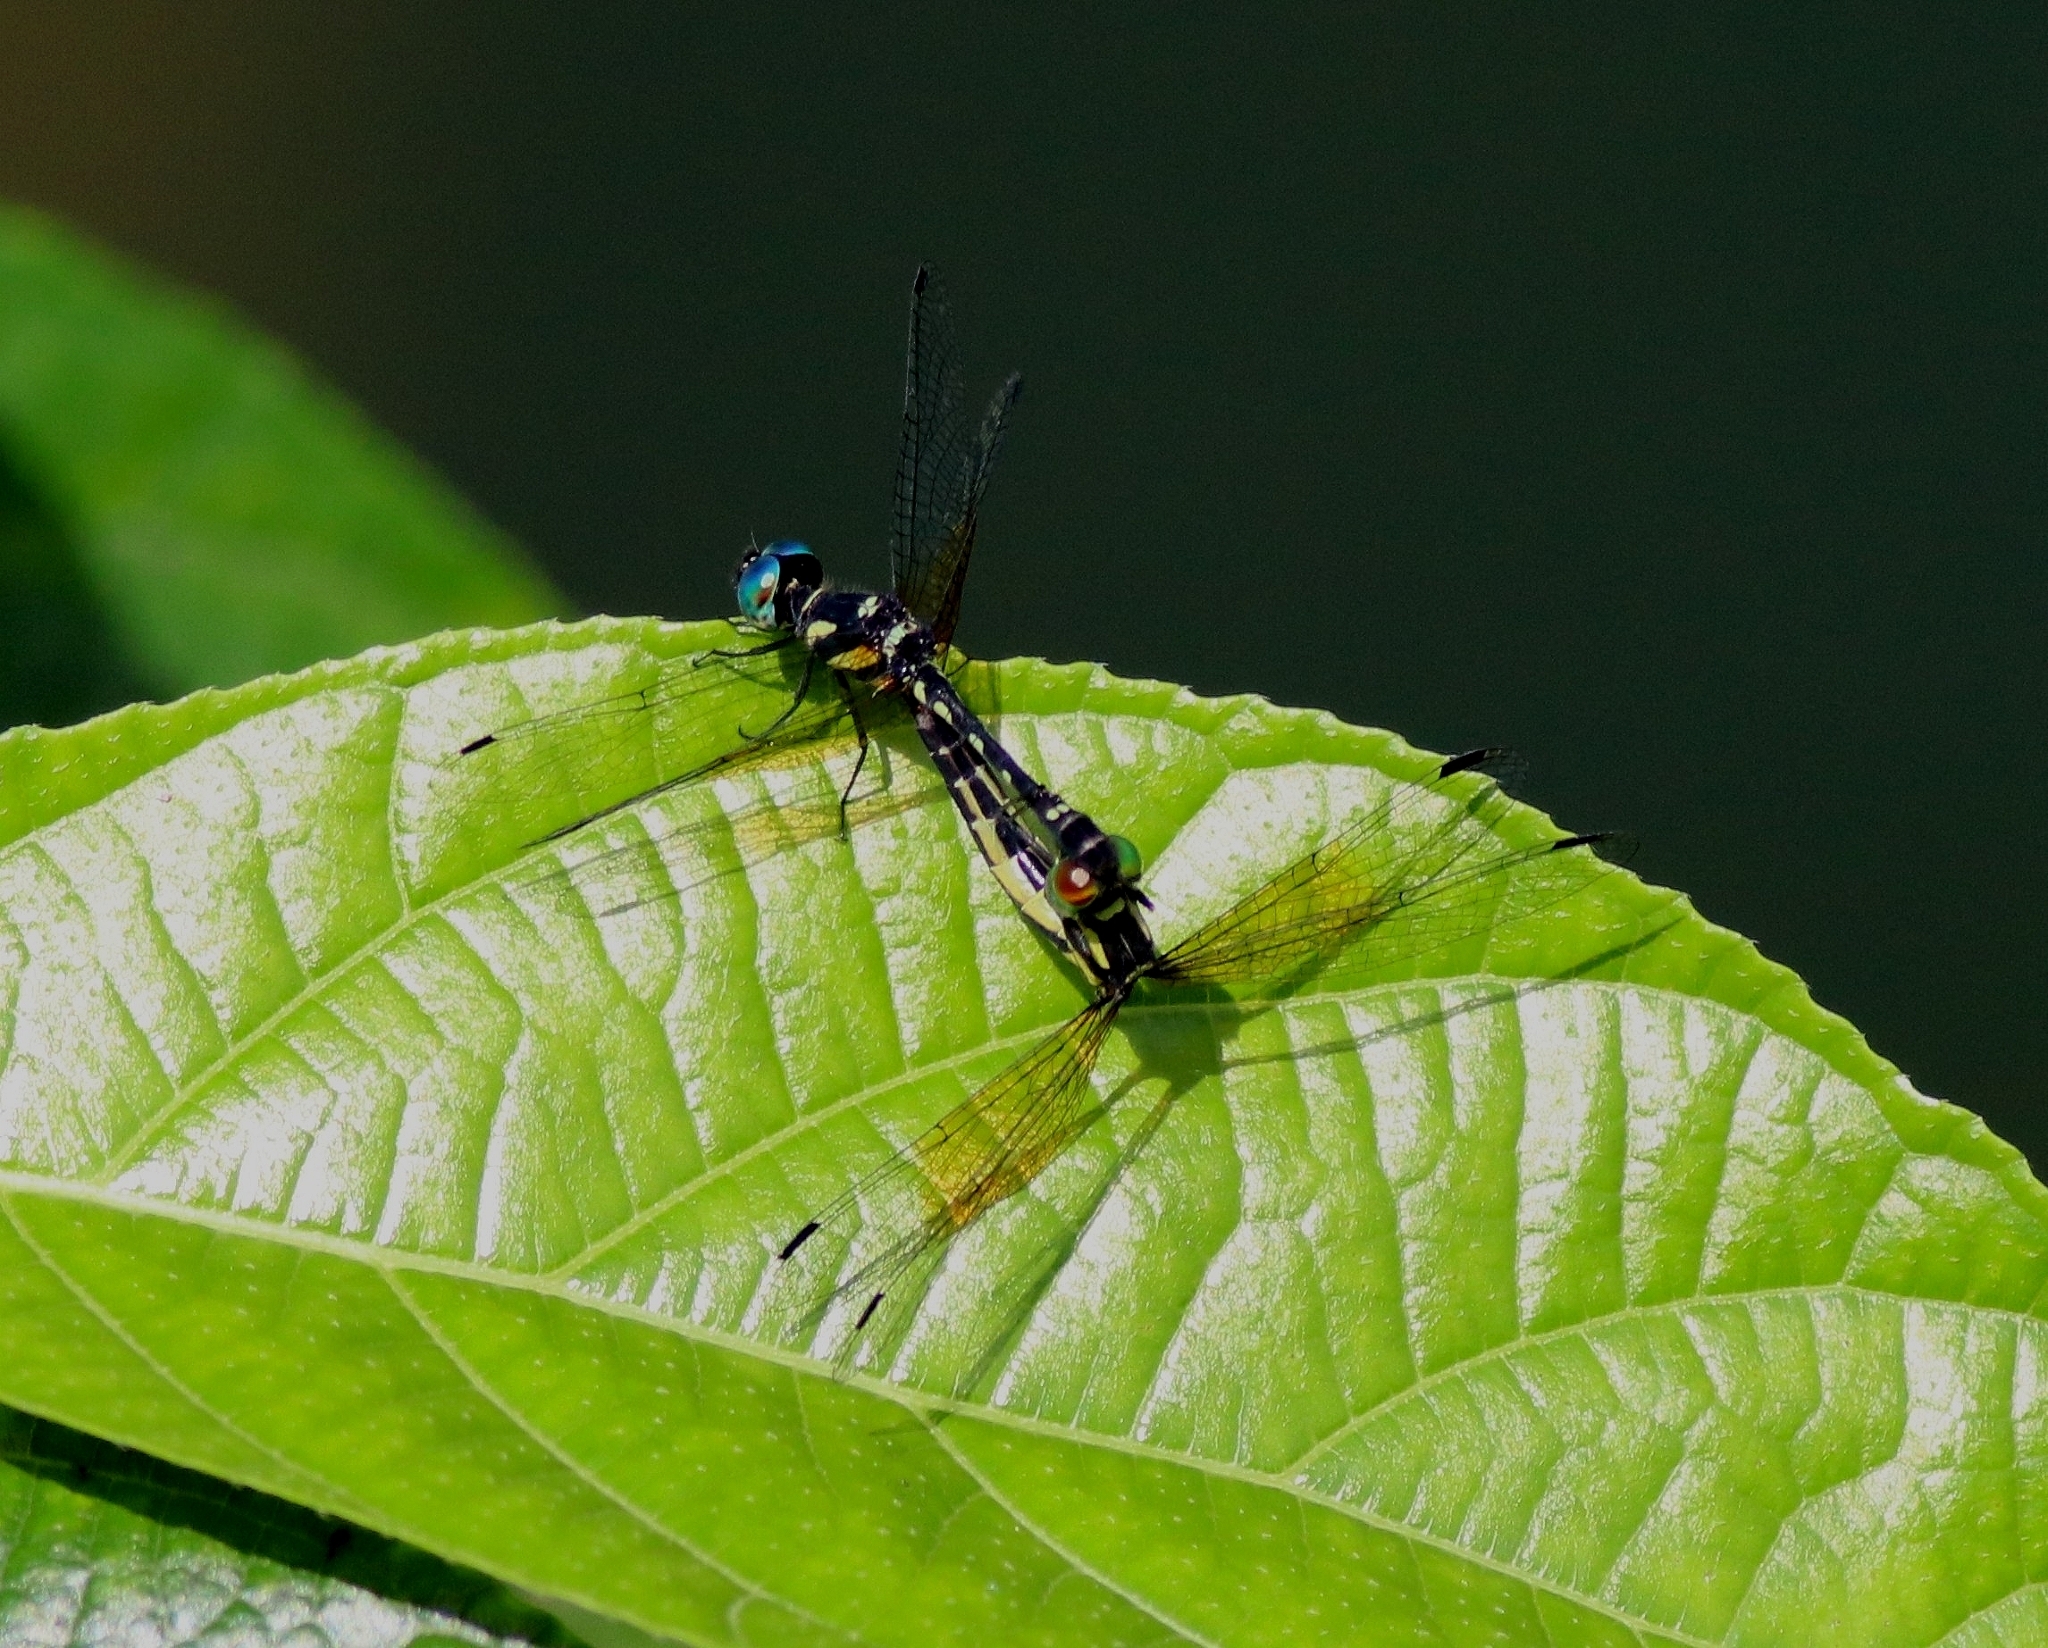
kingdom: Animalia
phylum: Arthropoda
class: Insecta
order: Odonata
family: Libellulidae
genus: Tetrathemis
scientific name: Tetrathemis platyptera
